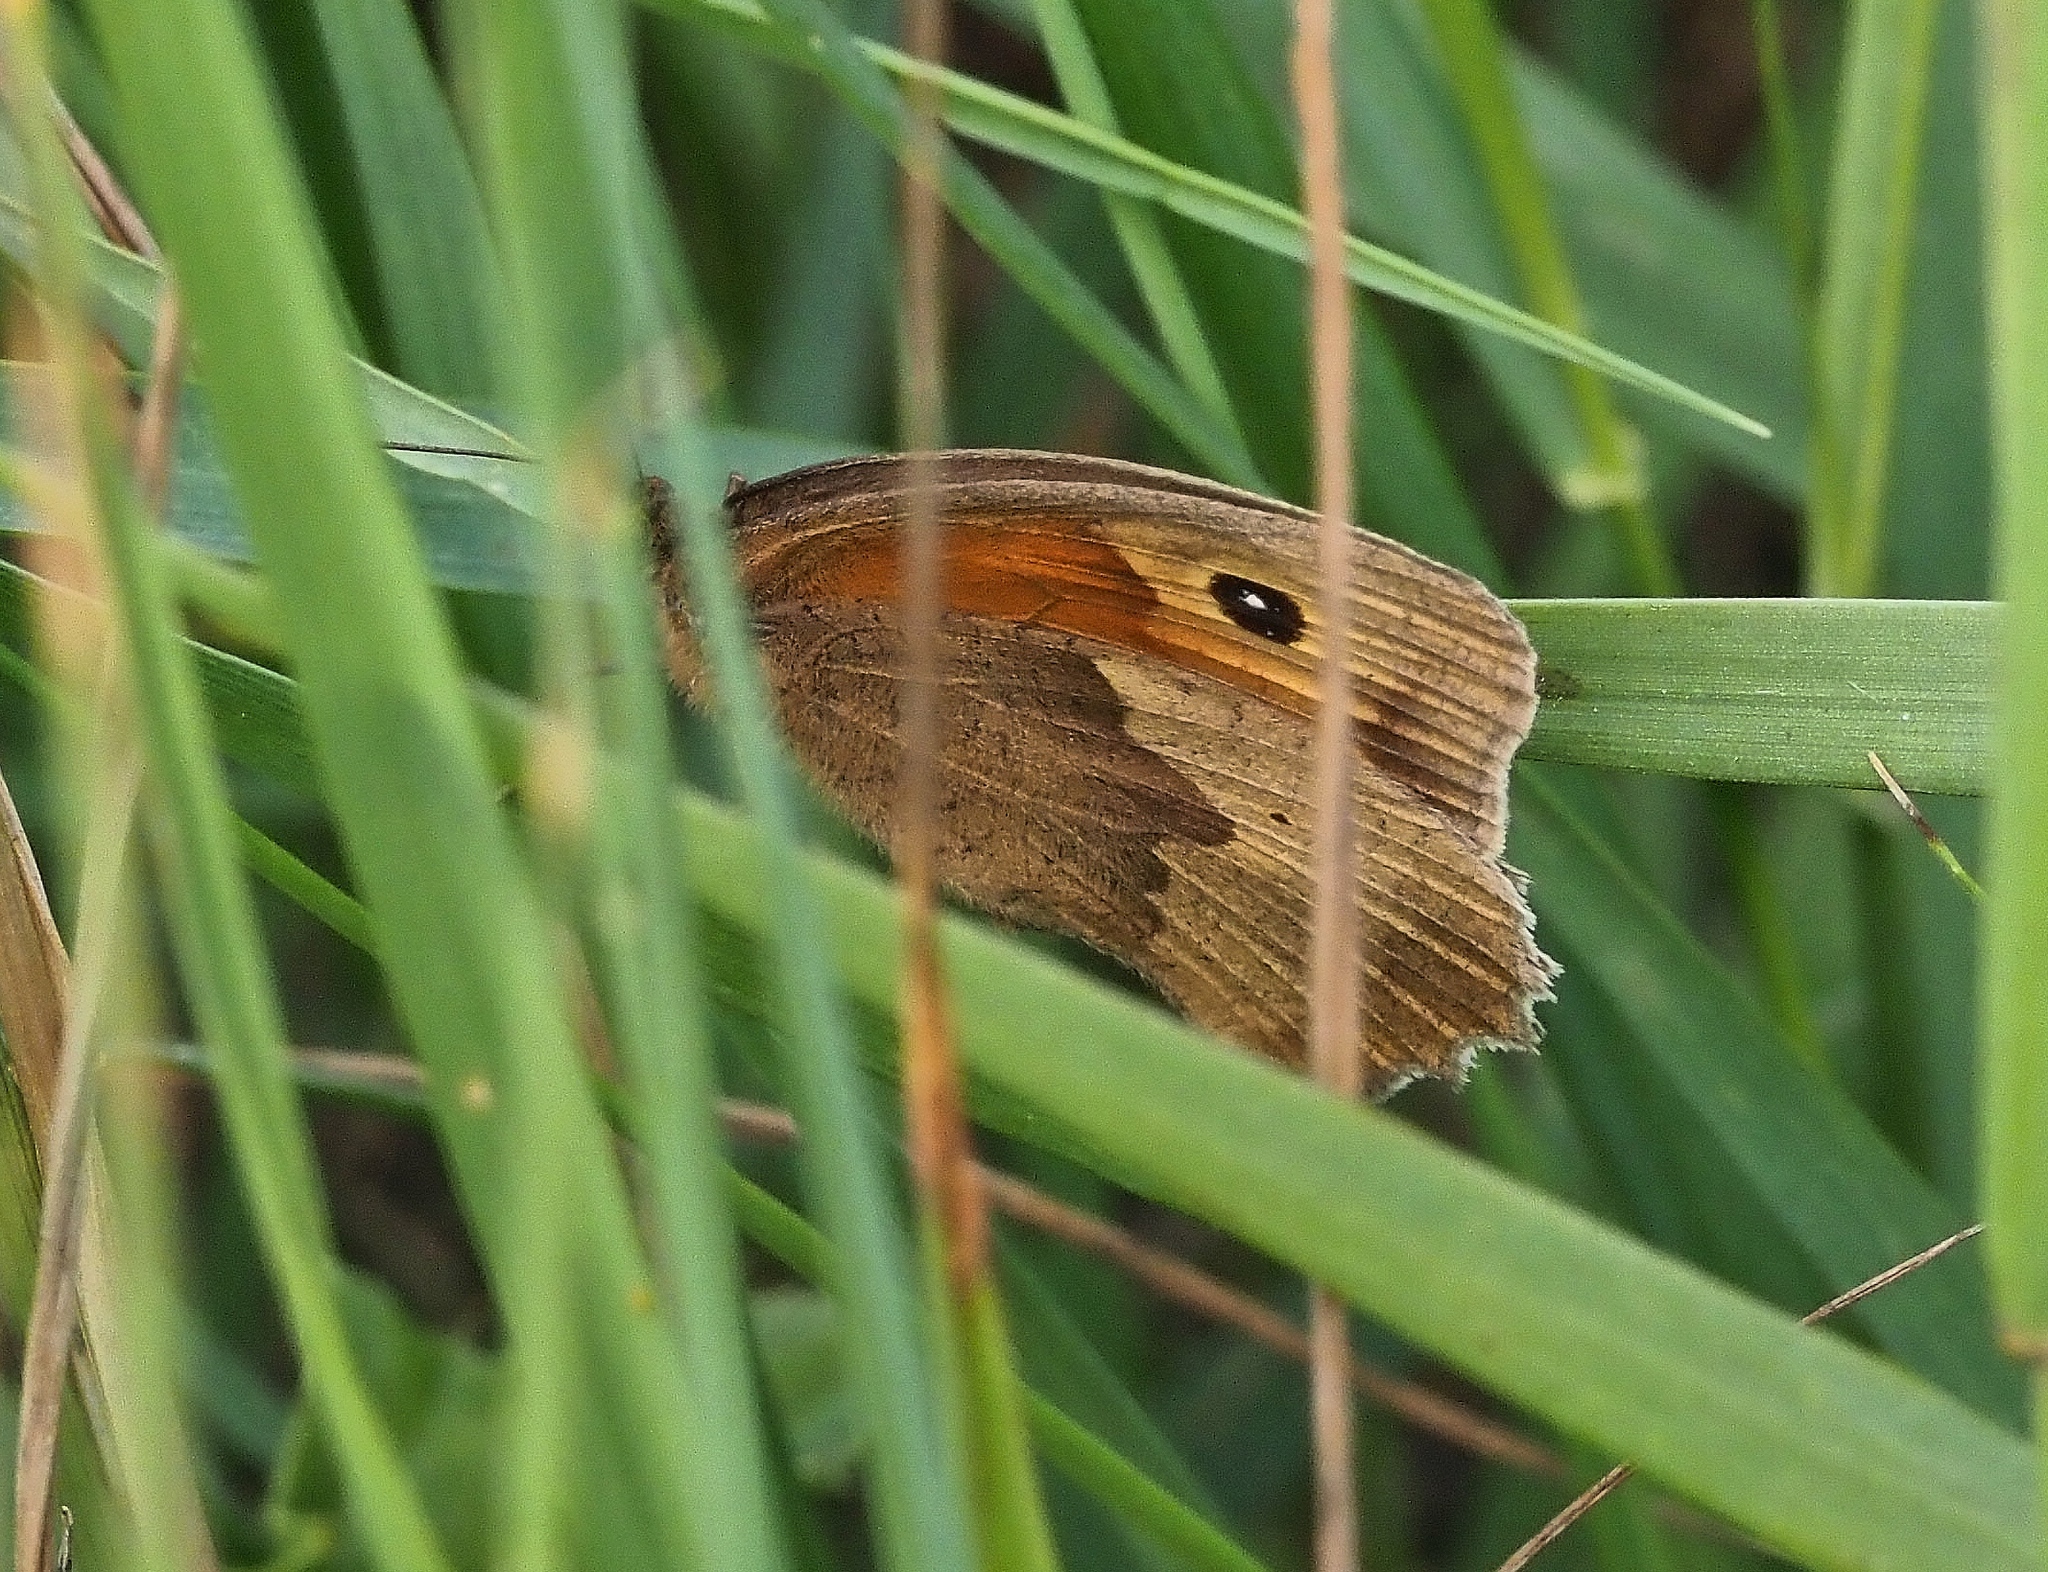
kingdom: Animalia
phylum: Arthropoda
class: Insecta
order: Lepidoptera
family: Nymphalidae
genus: Maniola
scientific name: Maniola jurtina
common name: Meadow brown
